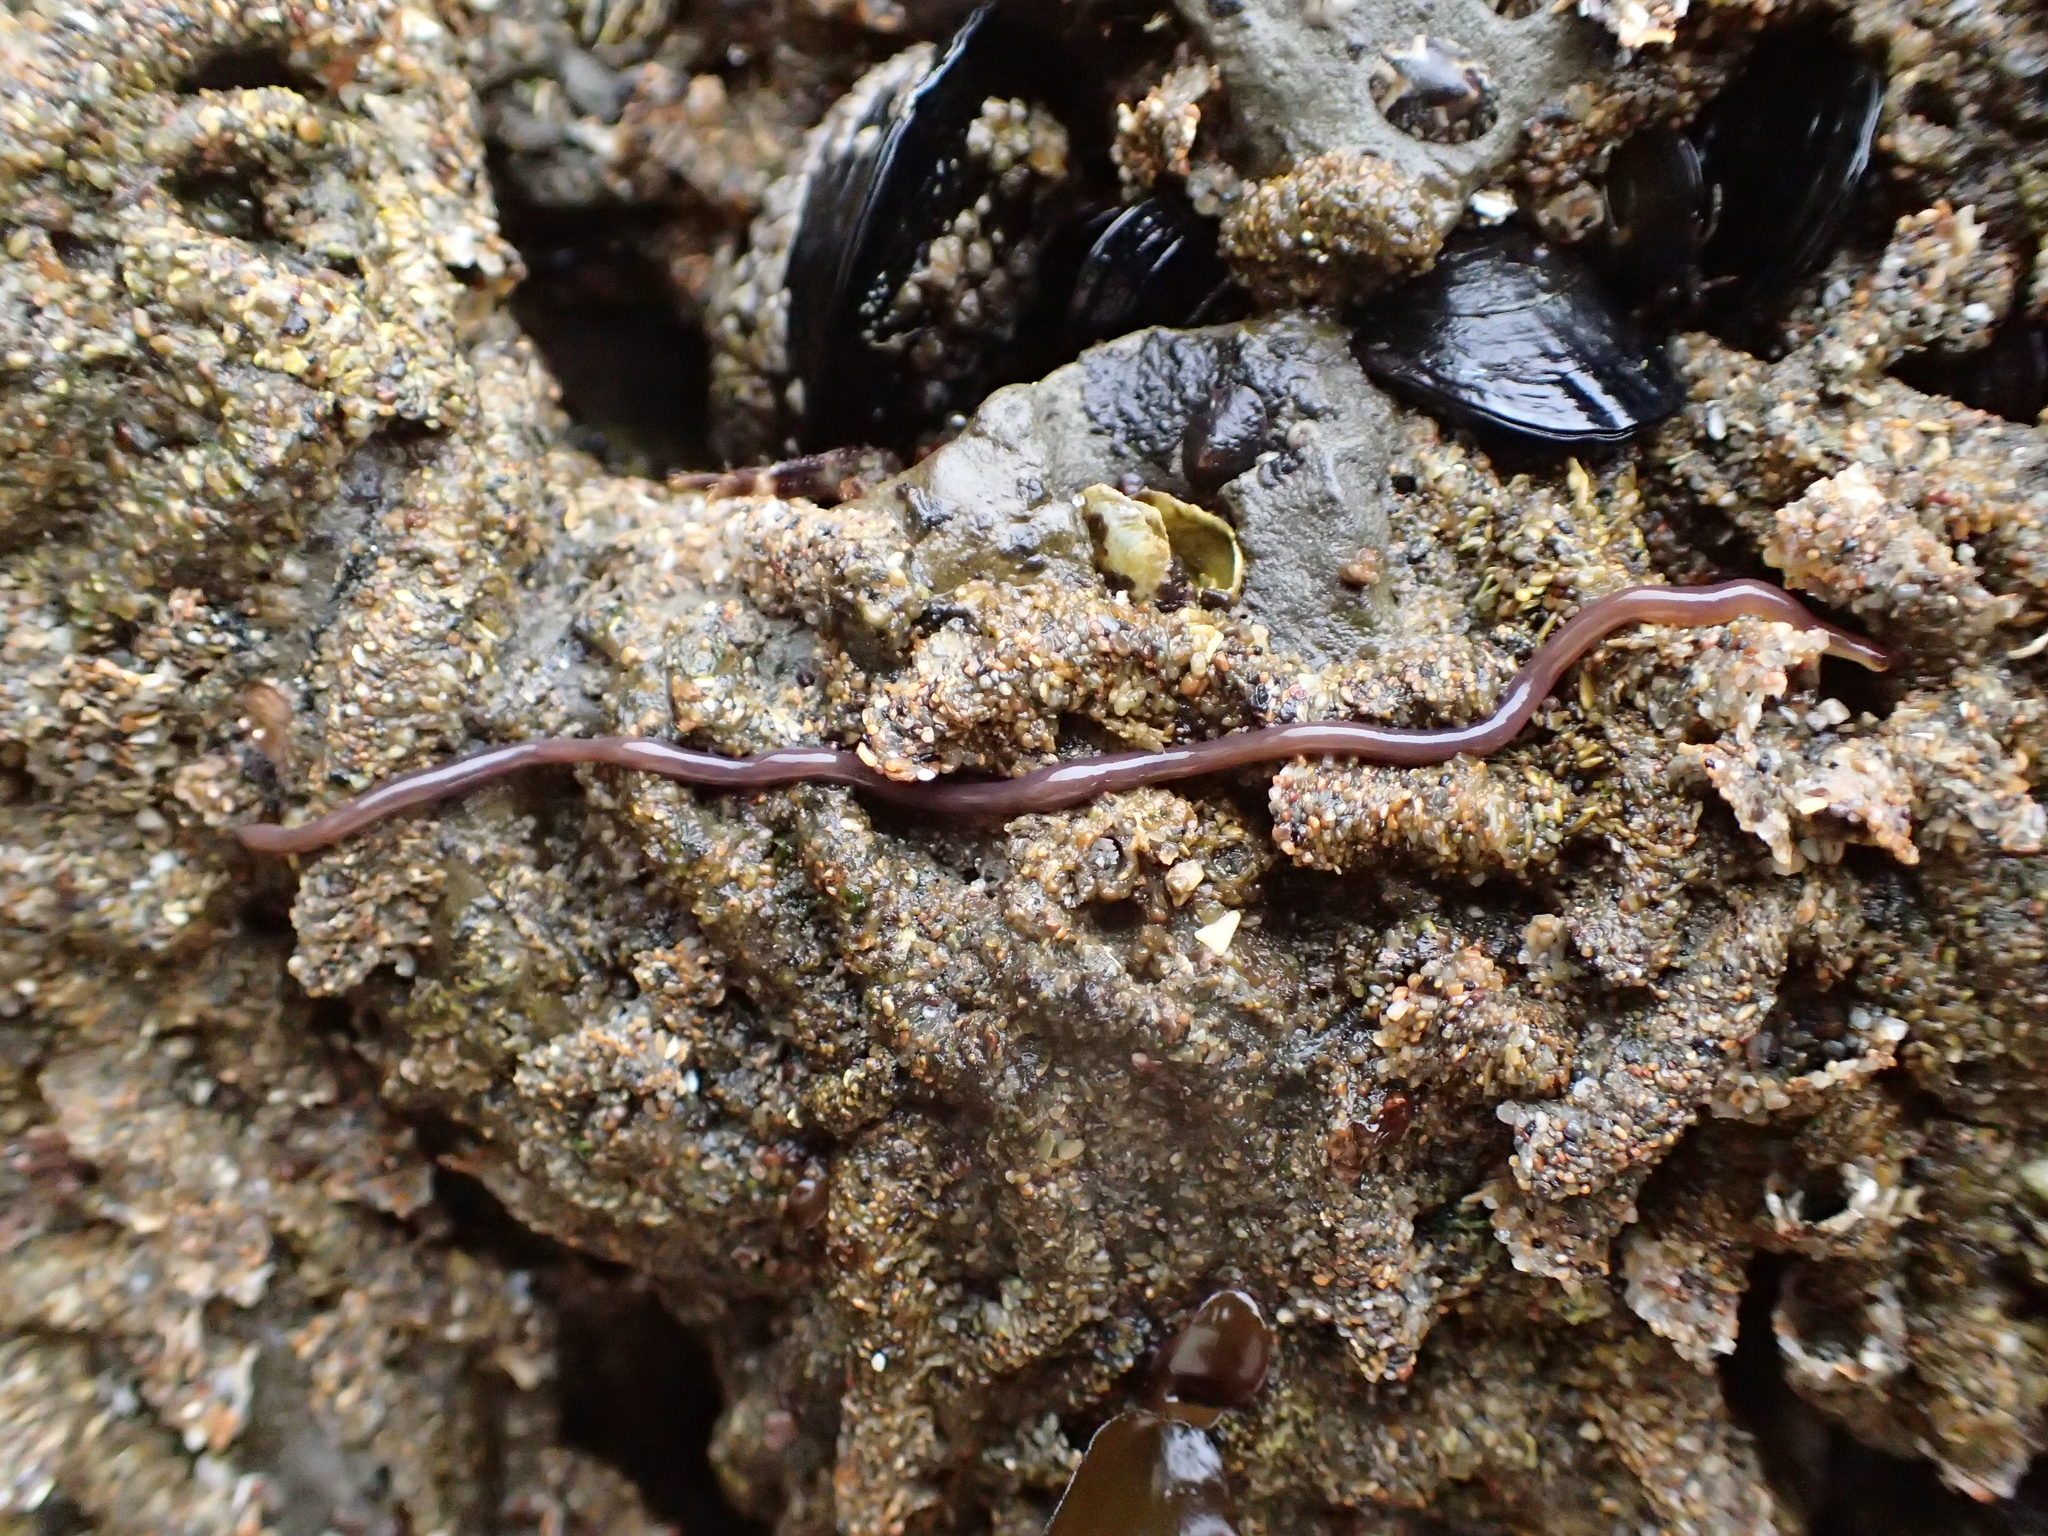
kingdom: Animalia
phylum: Nemertea
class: Hoplonemertea
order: Monostilifera
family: Neesiidae
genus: Paranemertes
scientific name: Paranemertes peregrina
